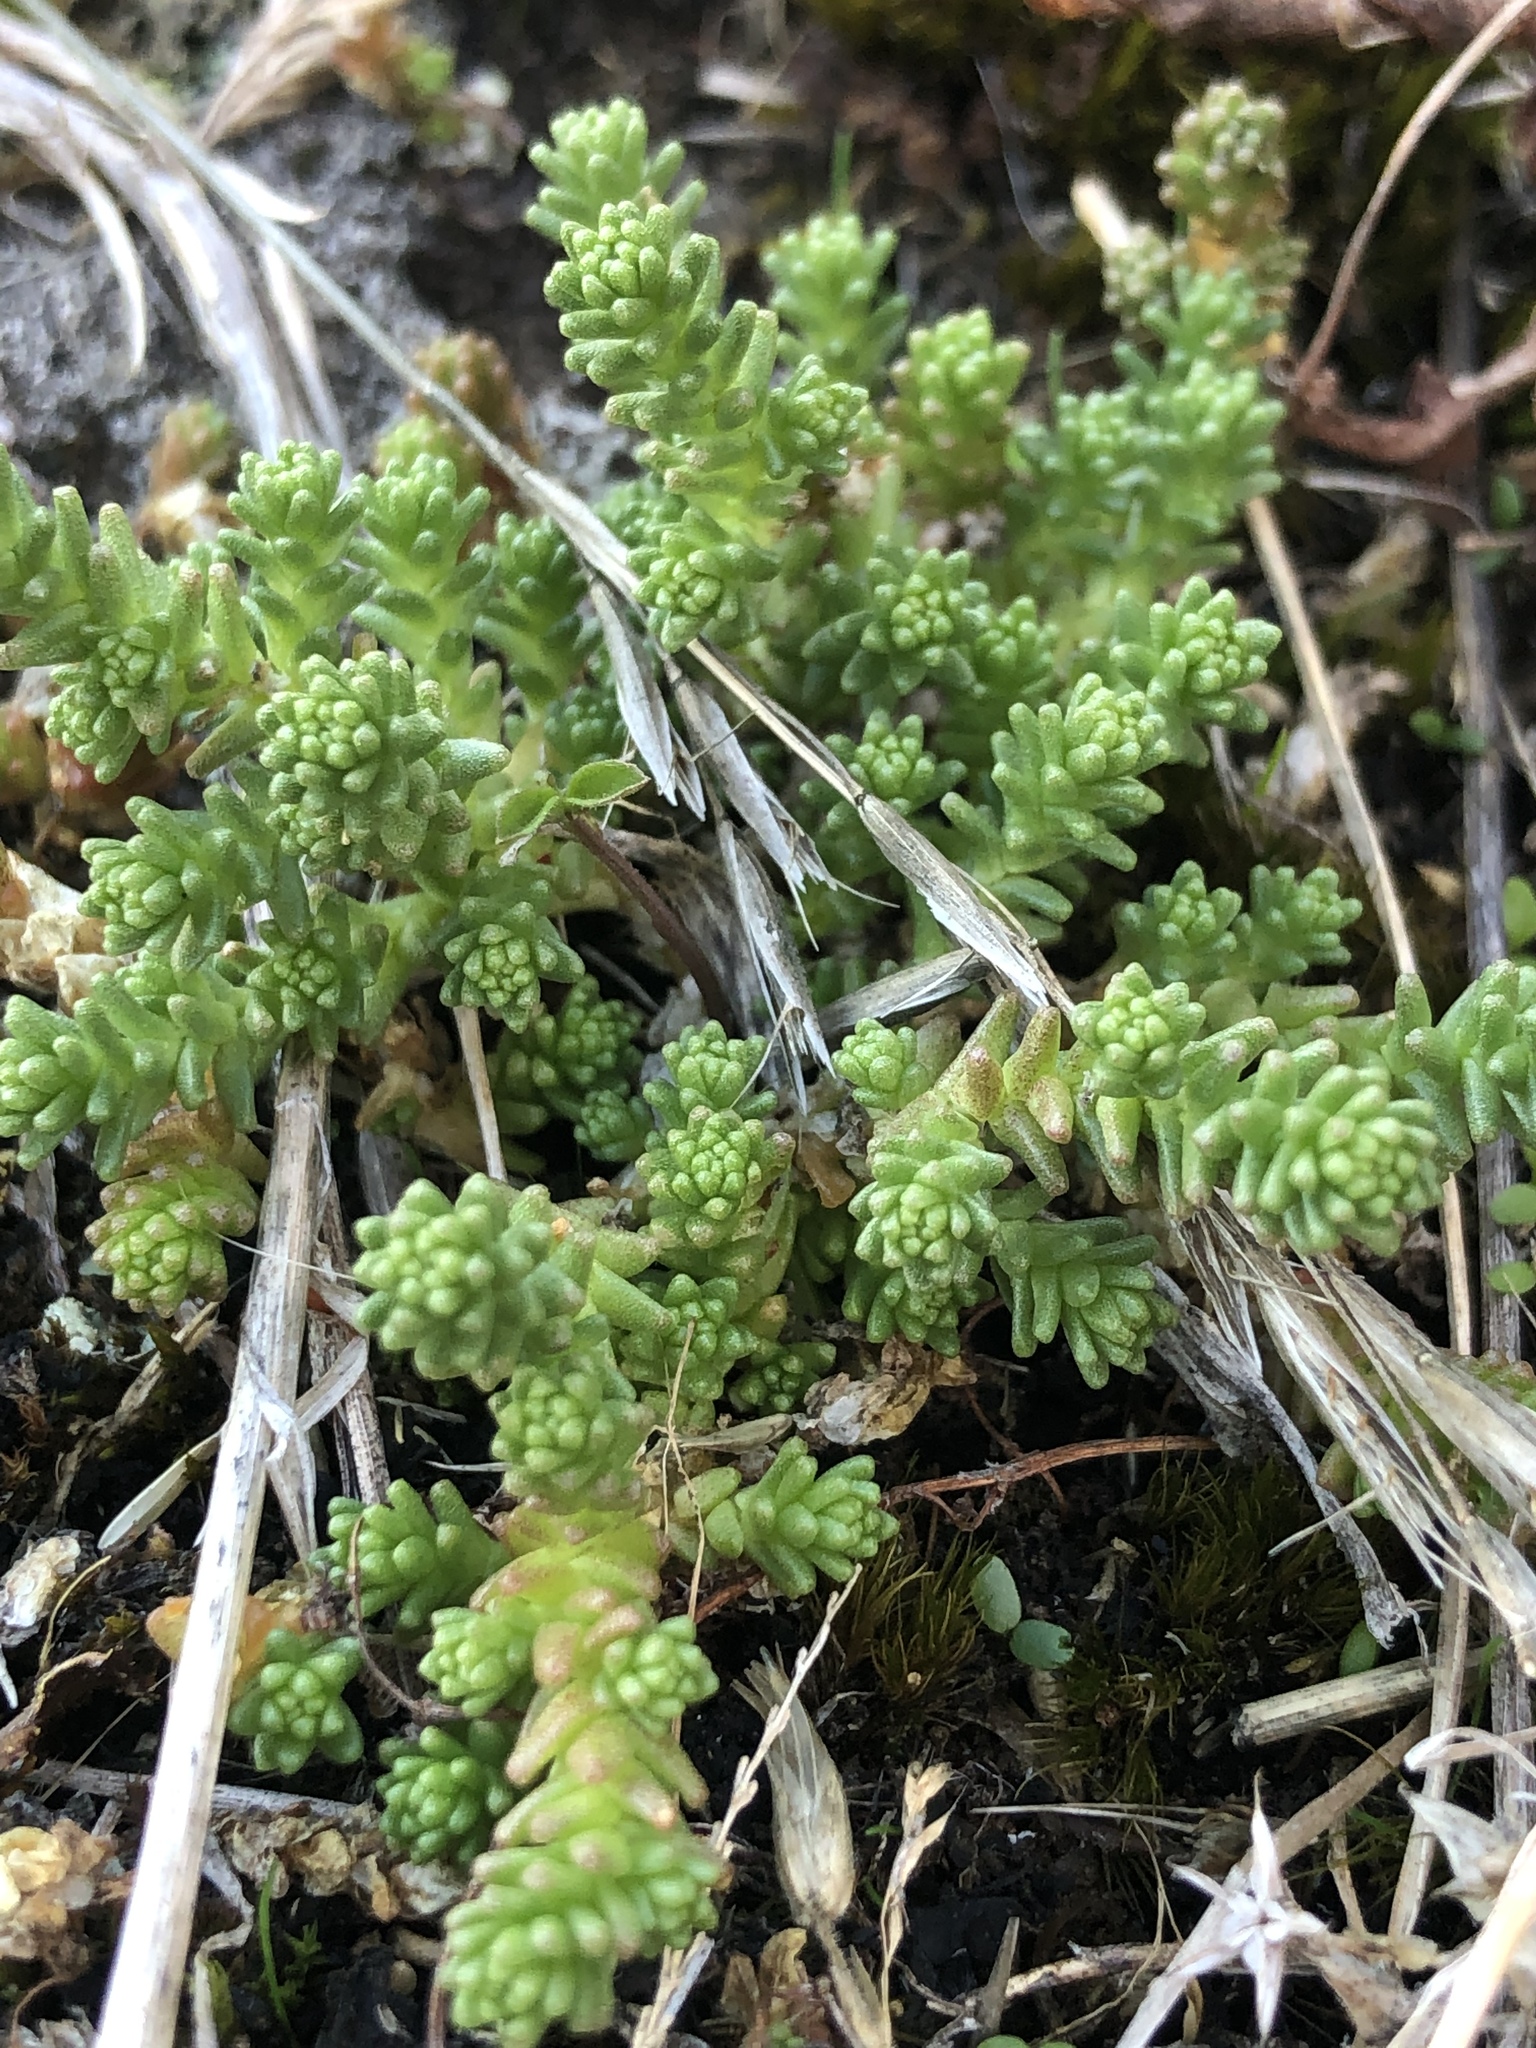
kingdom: Plantae
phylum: Tracheophyta
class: Magnoliopsida
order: Saxifragales
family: Crassulaceae
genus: Sedum
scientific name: Sedum acre
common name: Biting stonecrop
